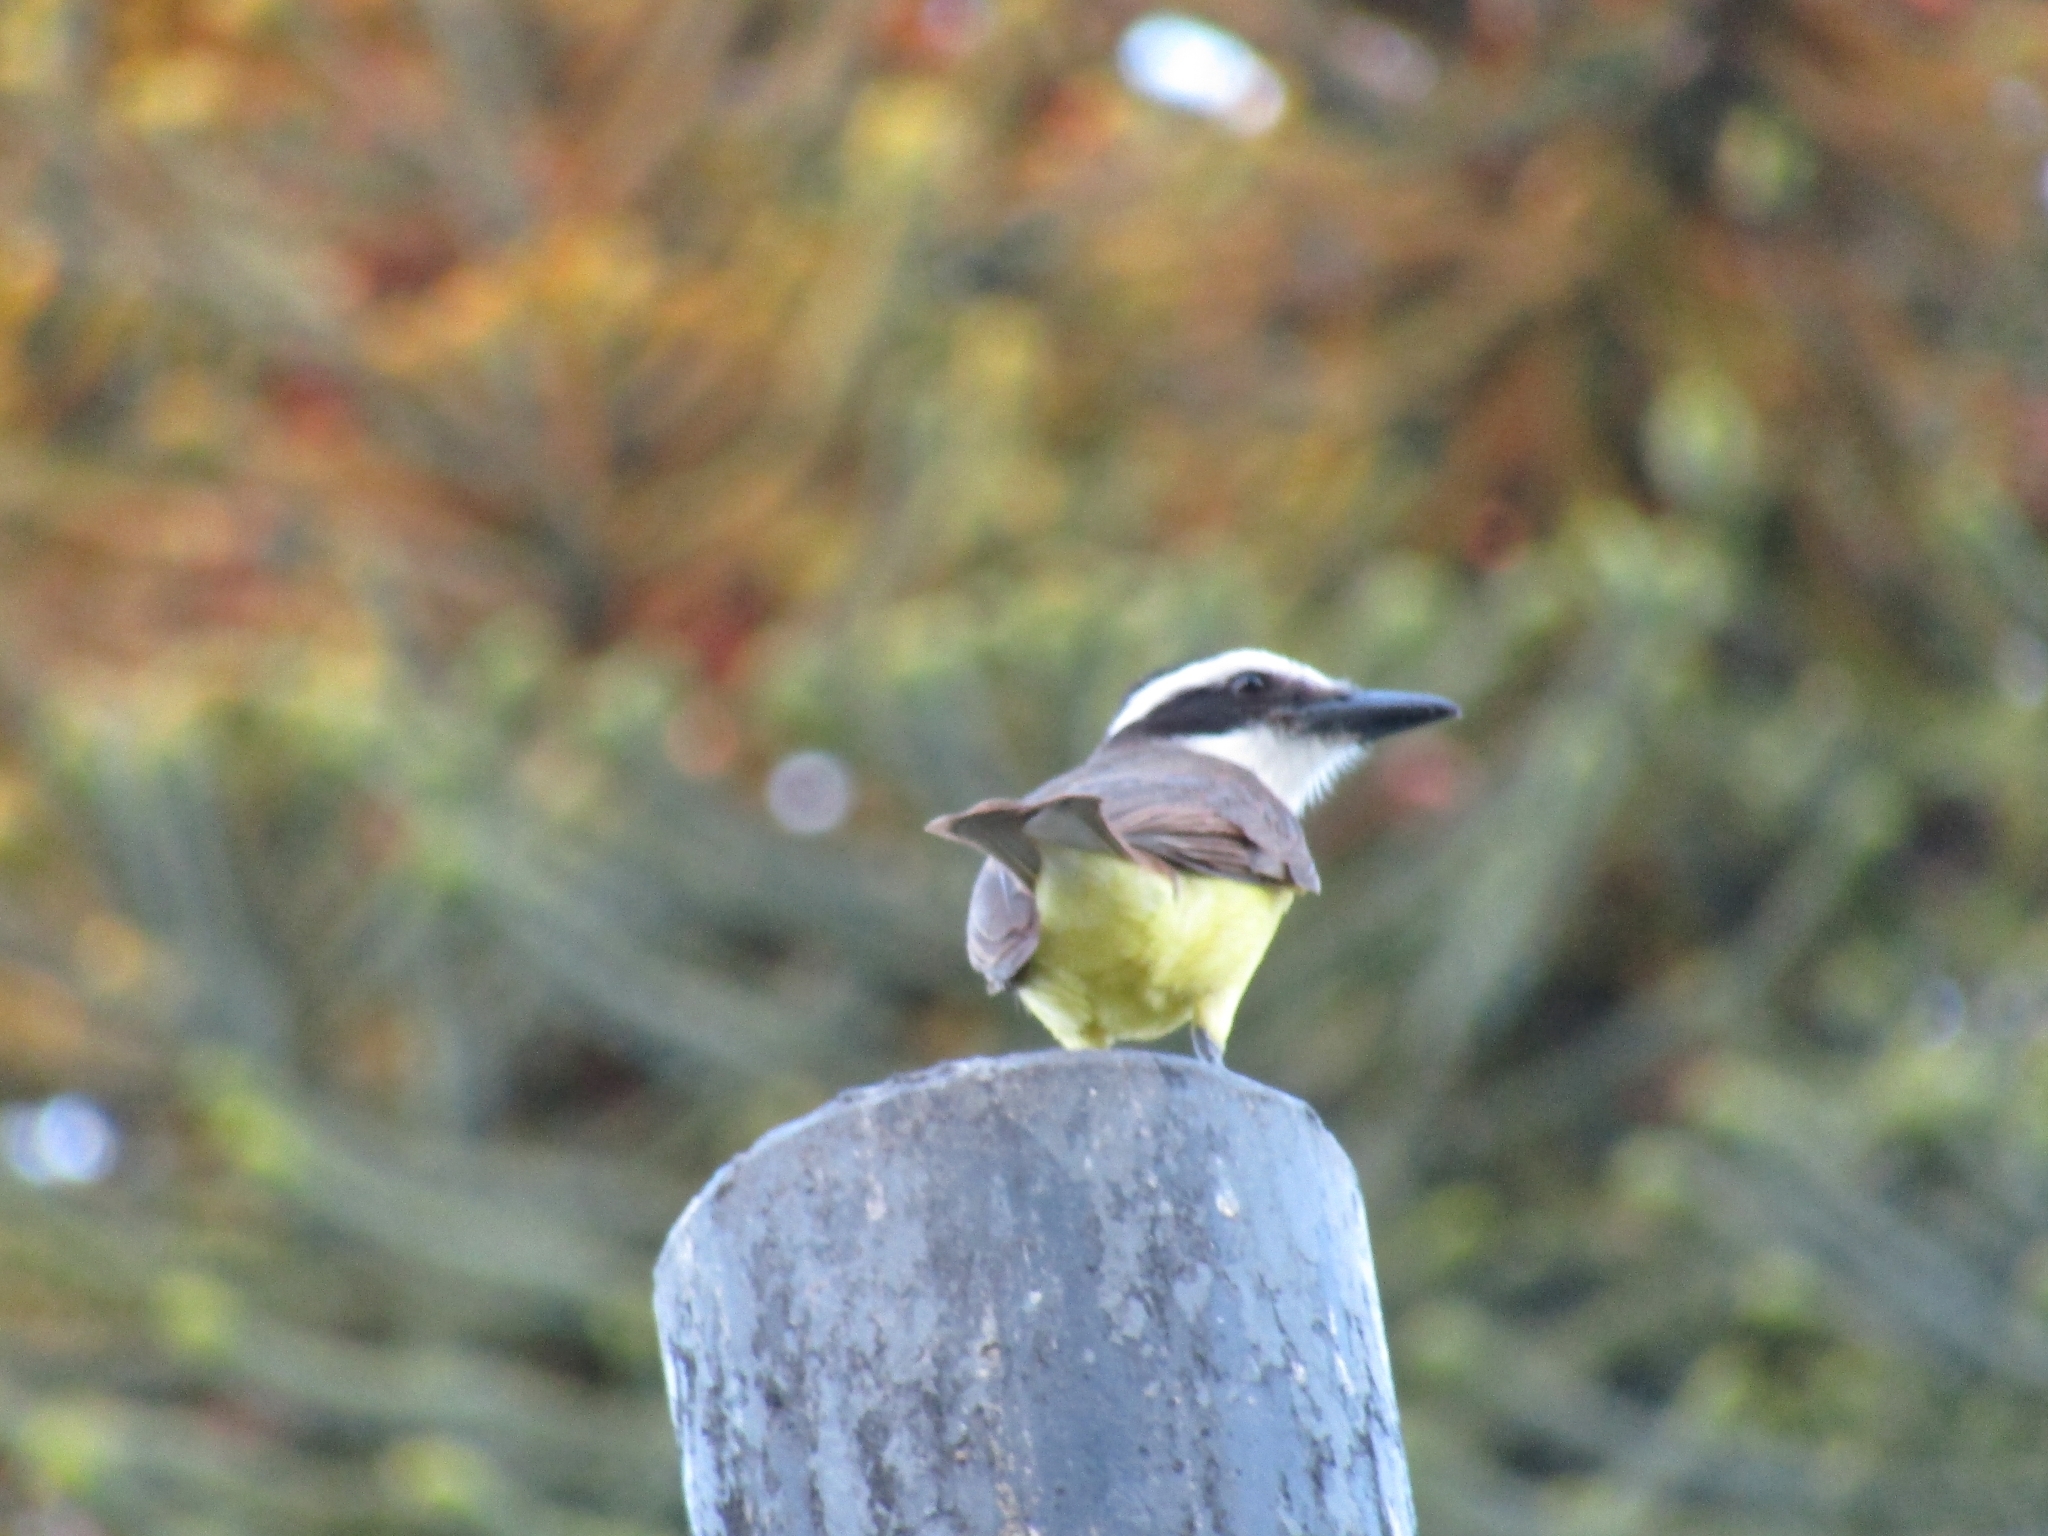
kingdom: Animalia
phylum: Chordata
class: Aves
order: Passeriformes
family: Tyrannidae
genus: Pitangus
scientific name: Pitangus sulphuratus
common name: Great kiskadee
